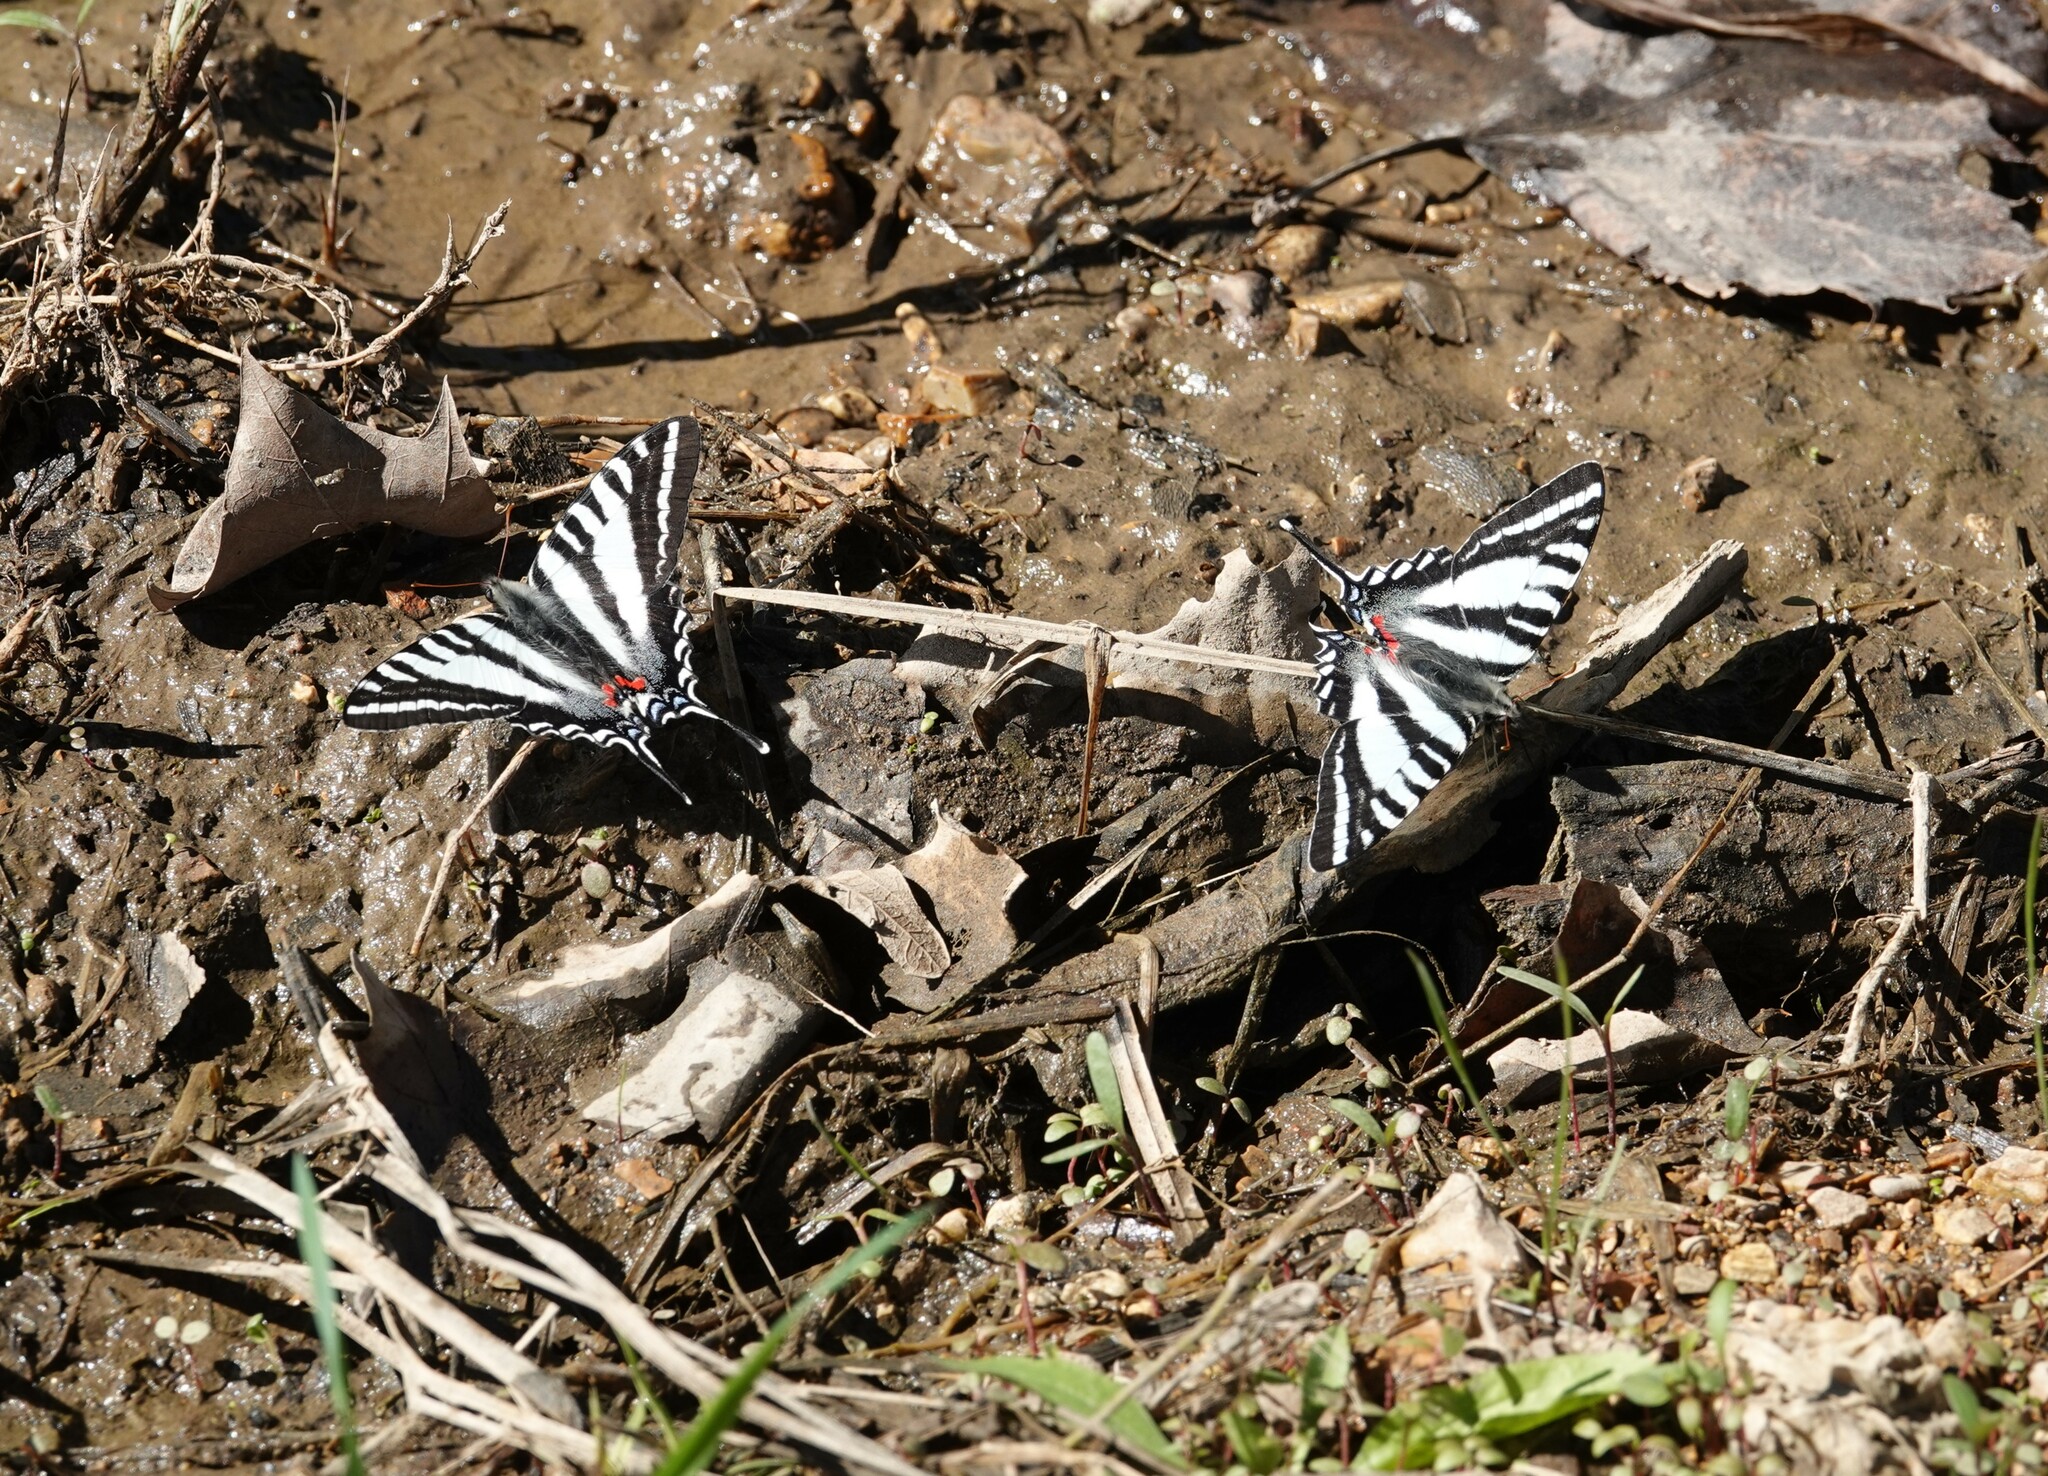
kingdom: Animalia
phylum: Arthropoda
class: Insecta
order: Lepidoptera
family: Papilionidae
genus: Protographium
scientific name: Protographium marcellus
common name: Zebra swallowtail
